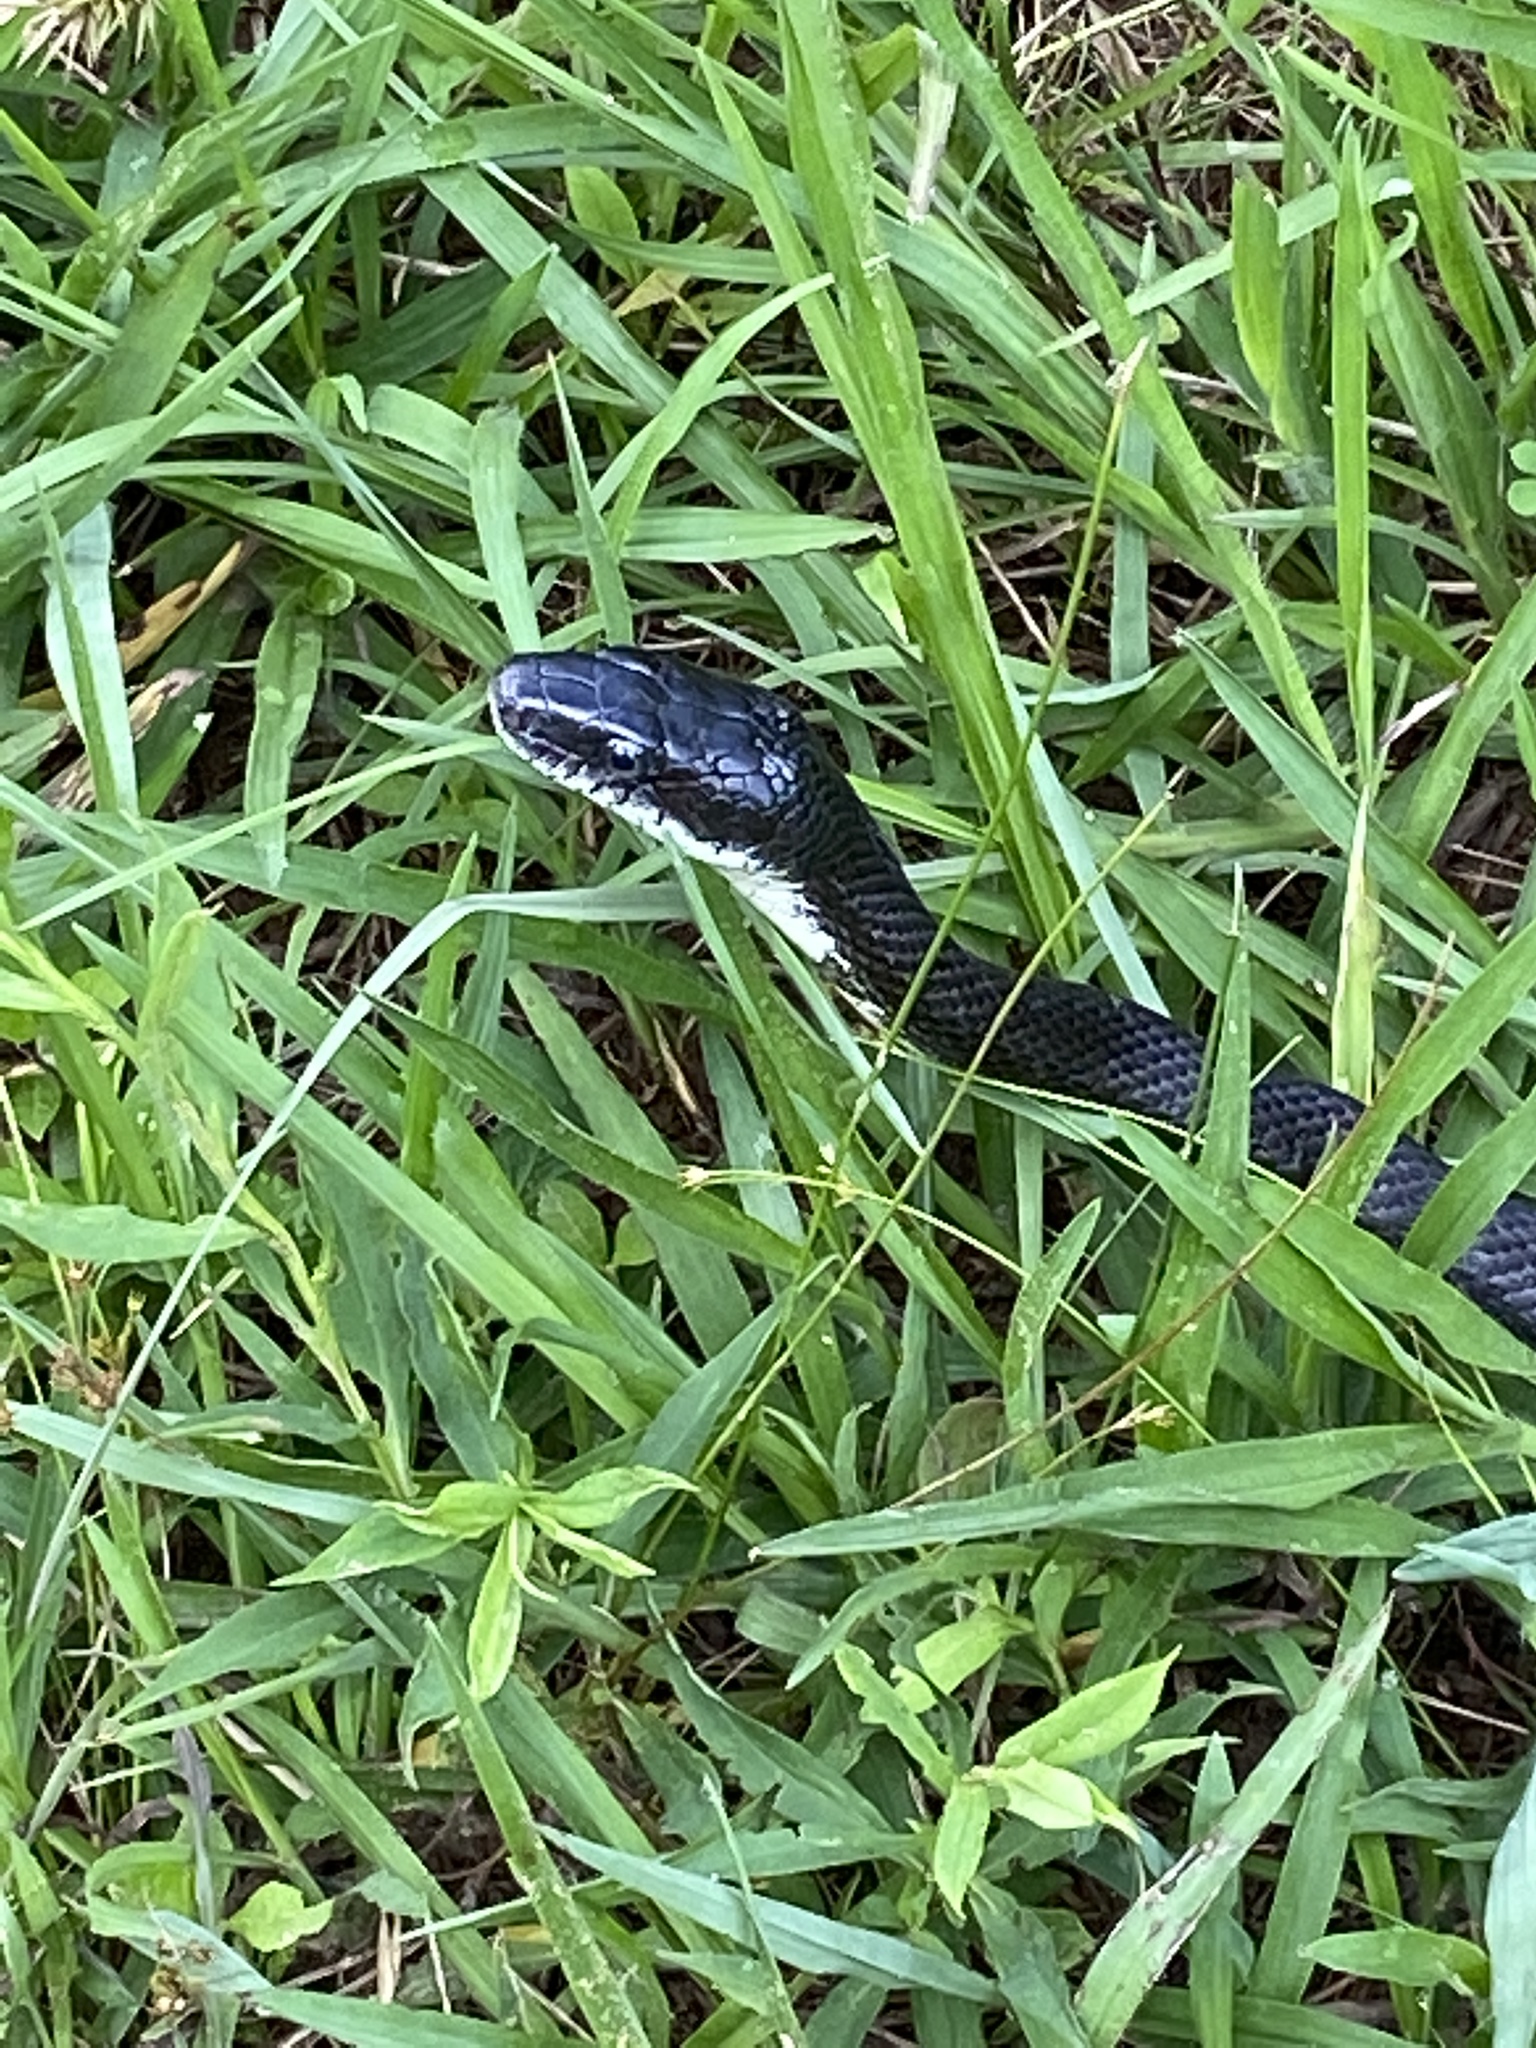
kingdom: Animalia
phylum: Chordata
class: Squamata
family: Colubridae
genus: Pantherophis
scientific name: Pantherophis alleghaniensis
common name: Eastern rat snake
